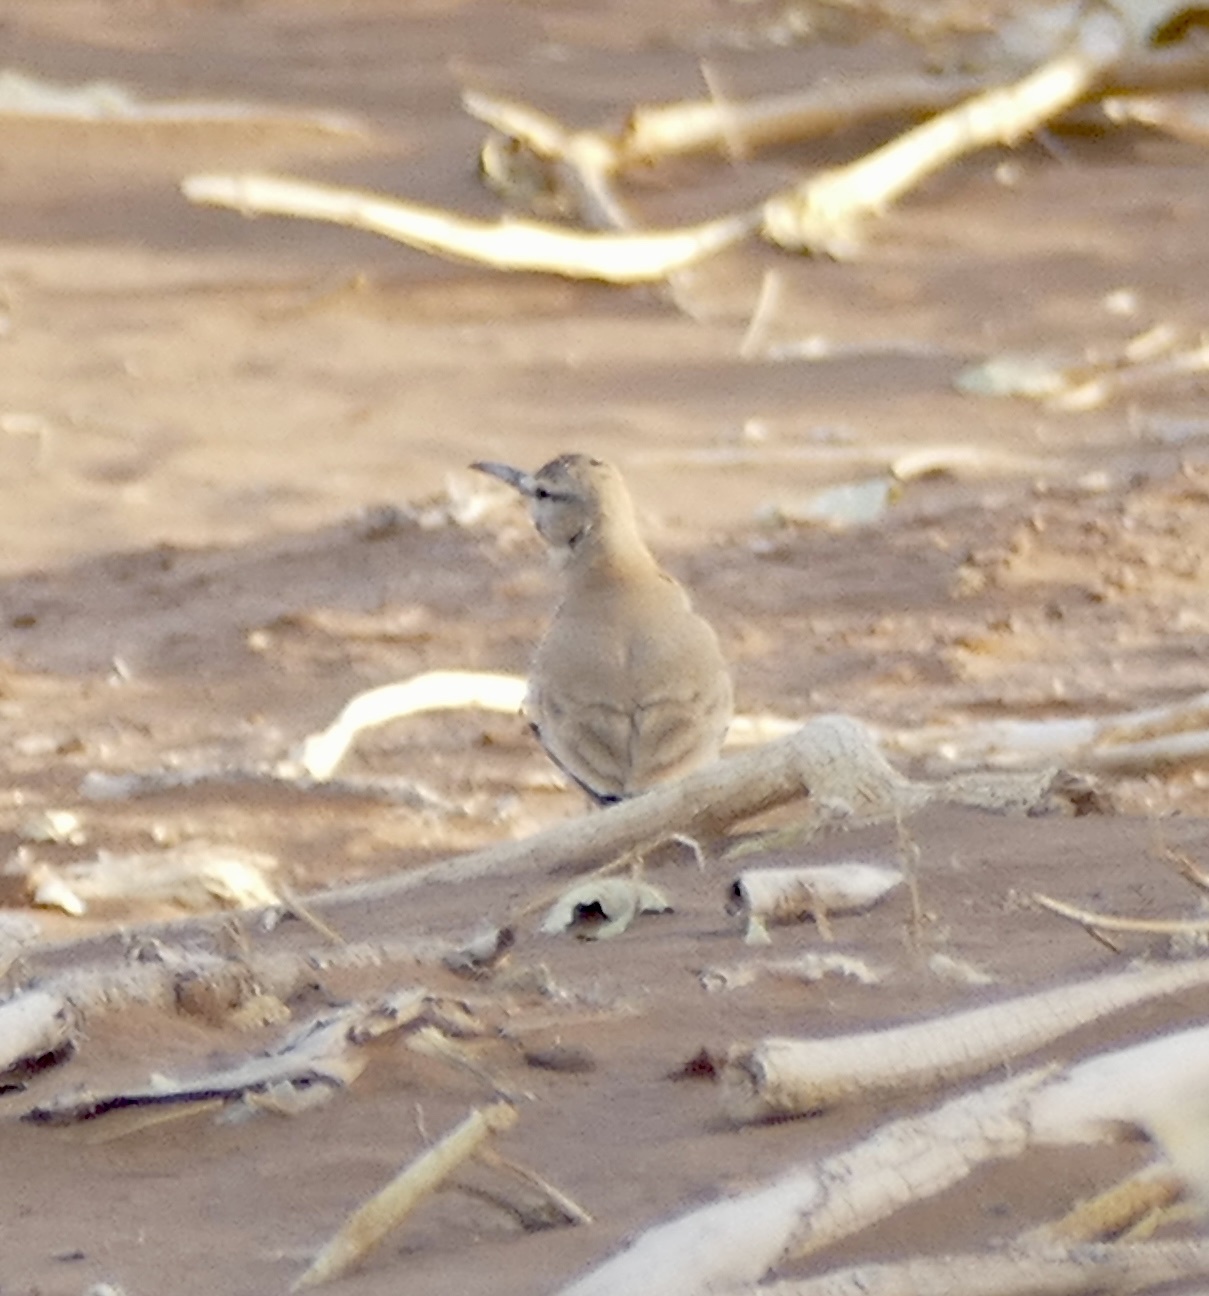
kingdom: Animalia
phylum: Chordata
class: Aves
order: Passeriformes
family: Alaudidae
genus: Alaemon
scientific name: Alaemon alaudipes
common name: Greater hoopoe-lark
